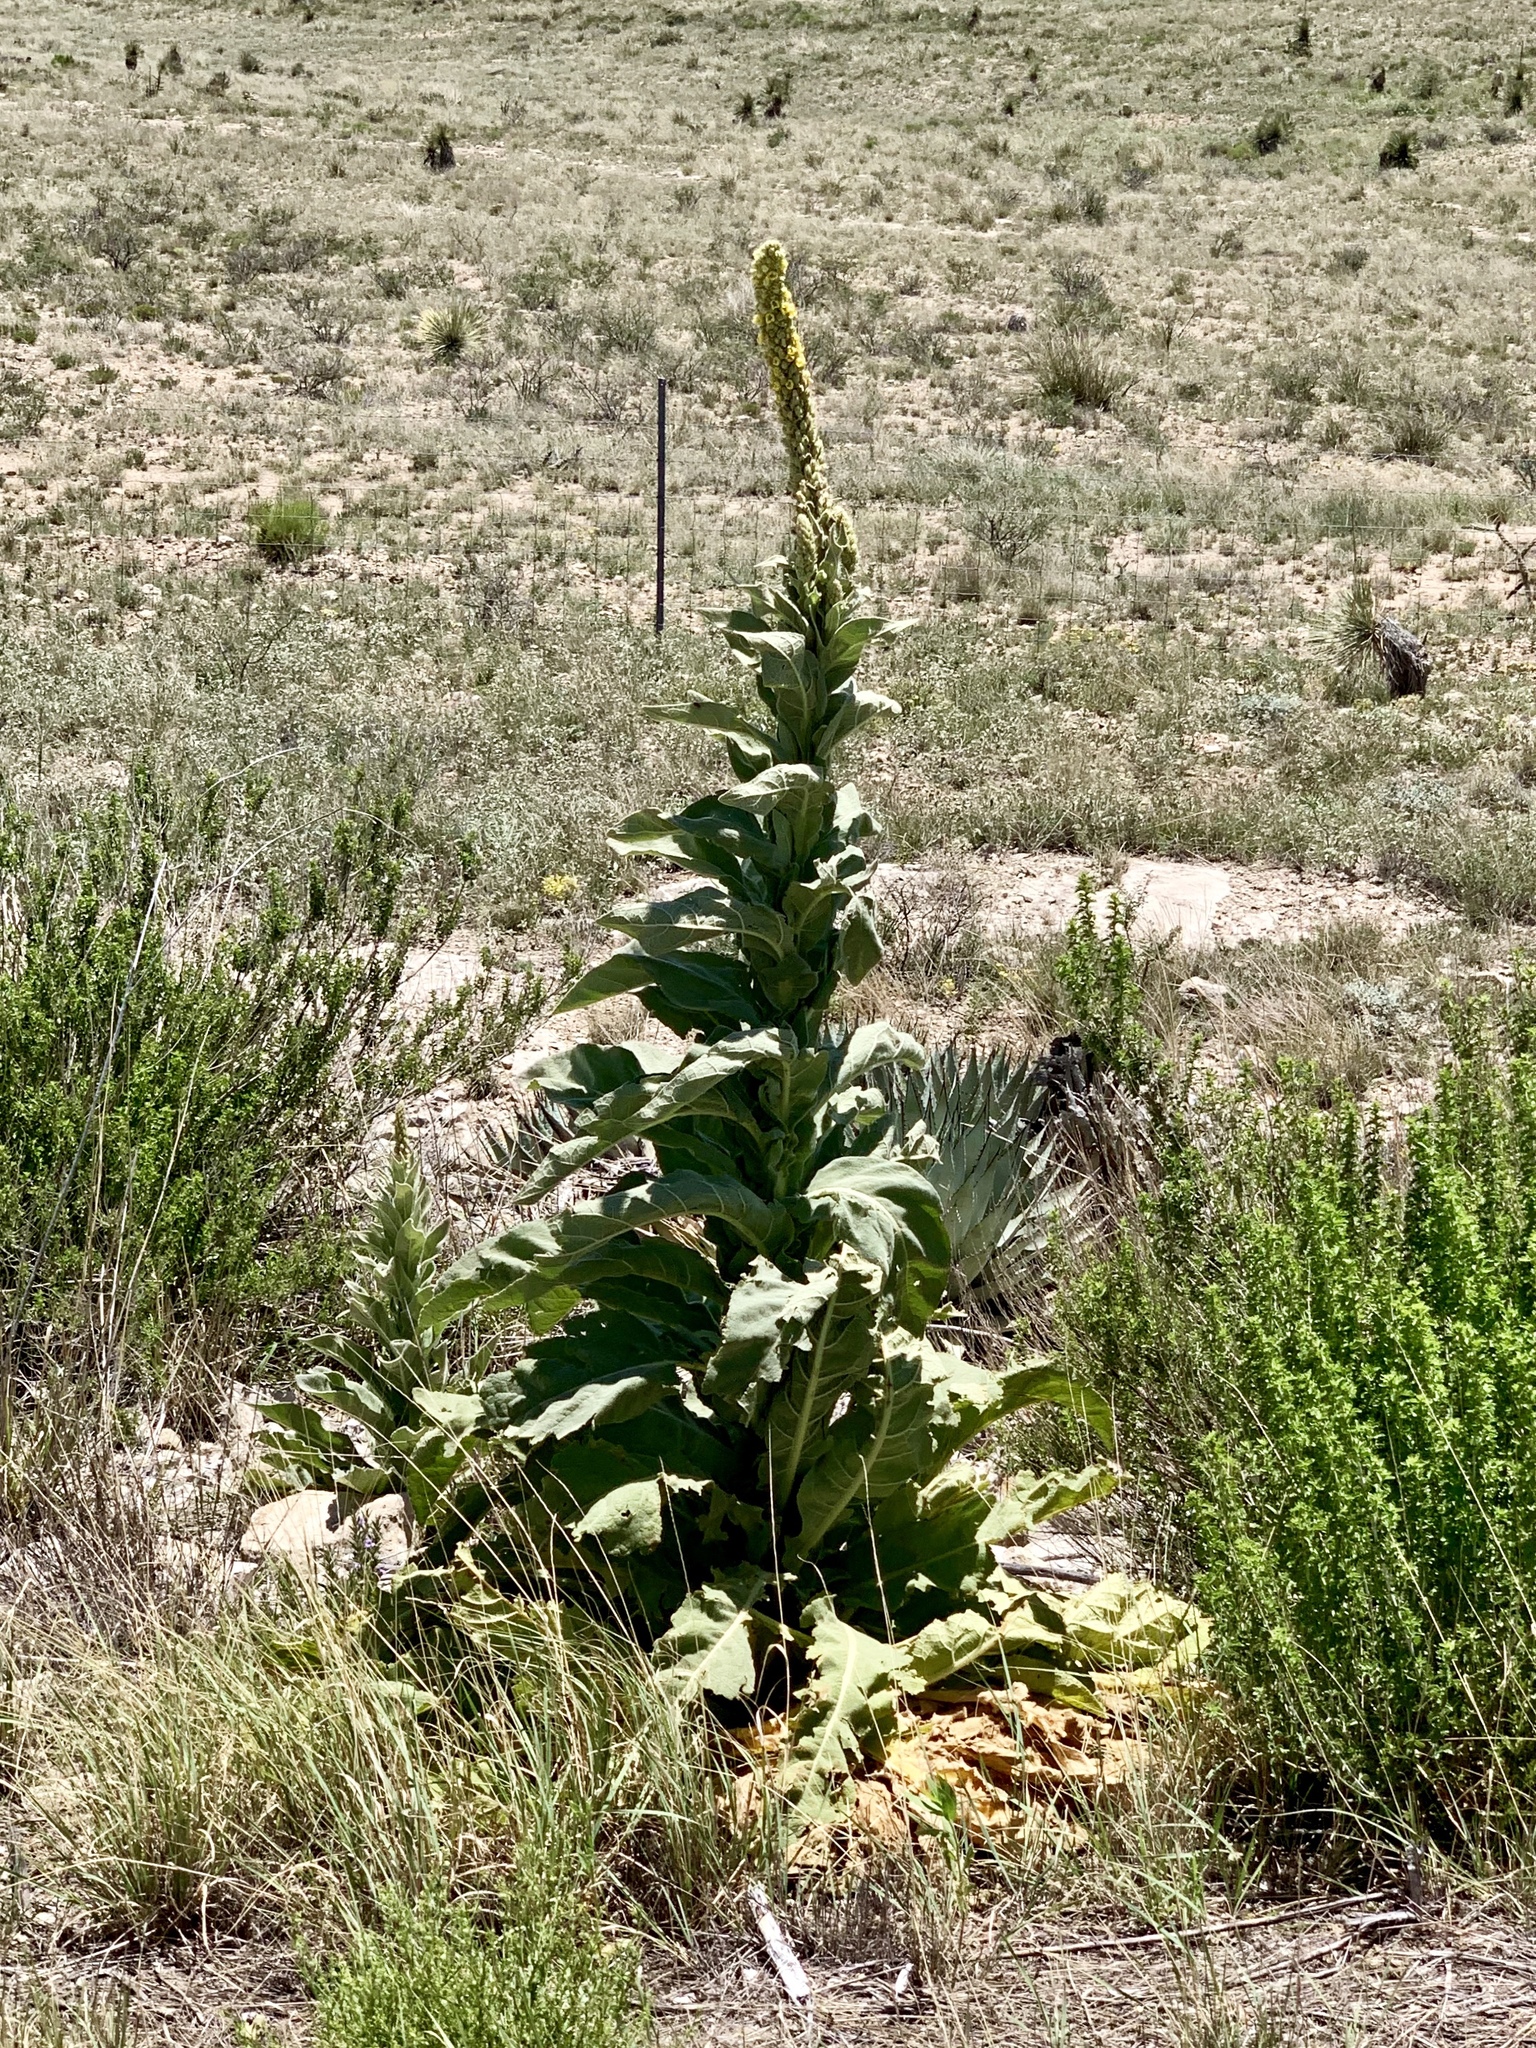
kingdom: Plantae
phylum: Tracheophyta
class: Magnoliopsida
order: Lamiales
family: Scrophulariaceae
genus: Verbascum
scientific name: Verbascum thapsus
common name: Common mullein
